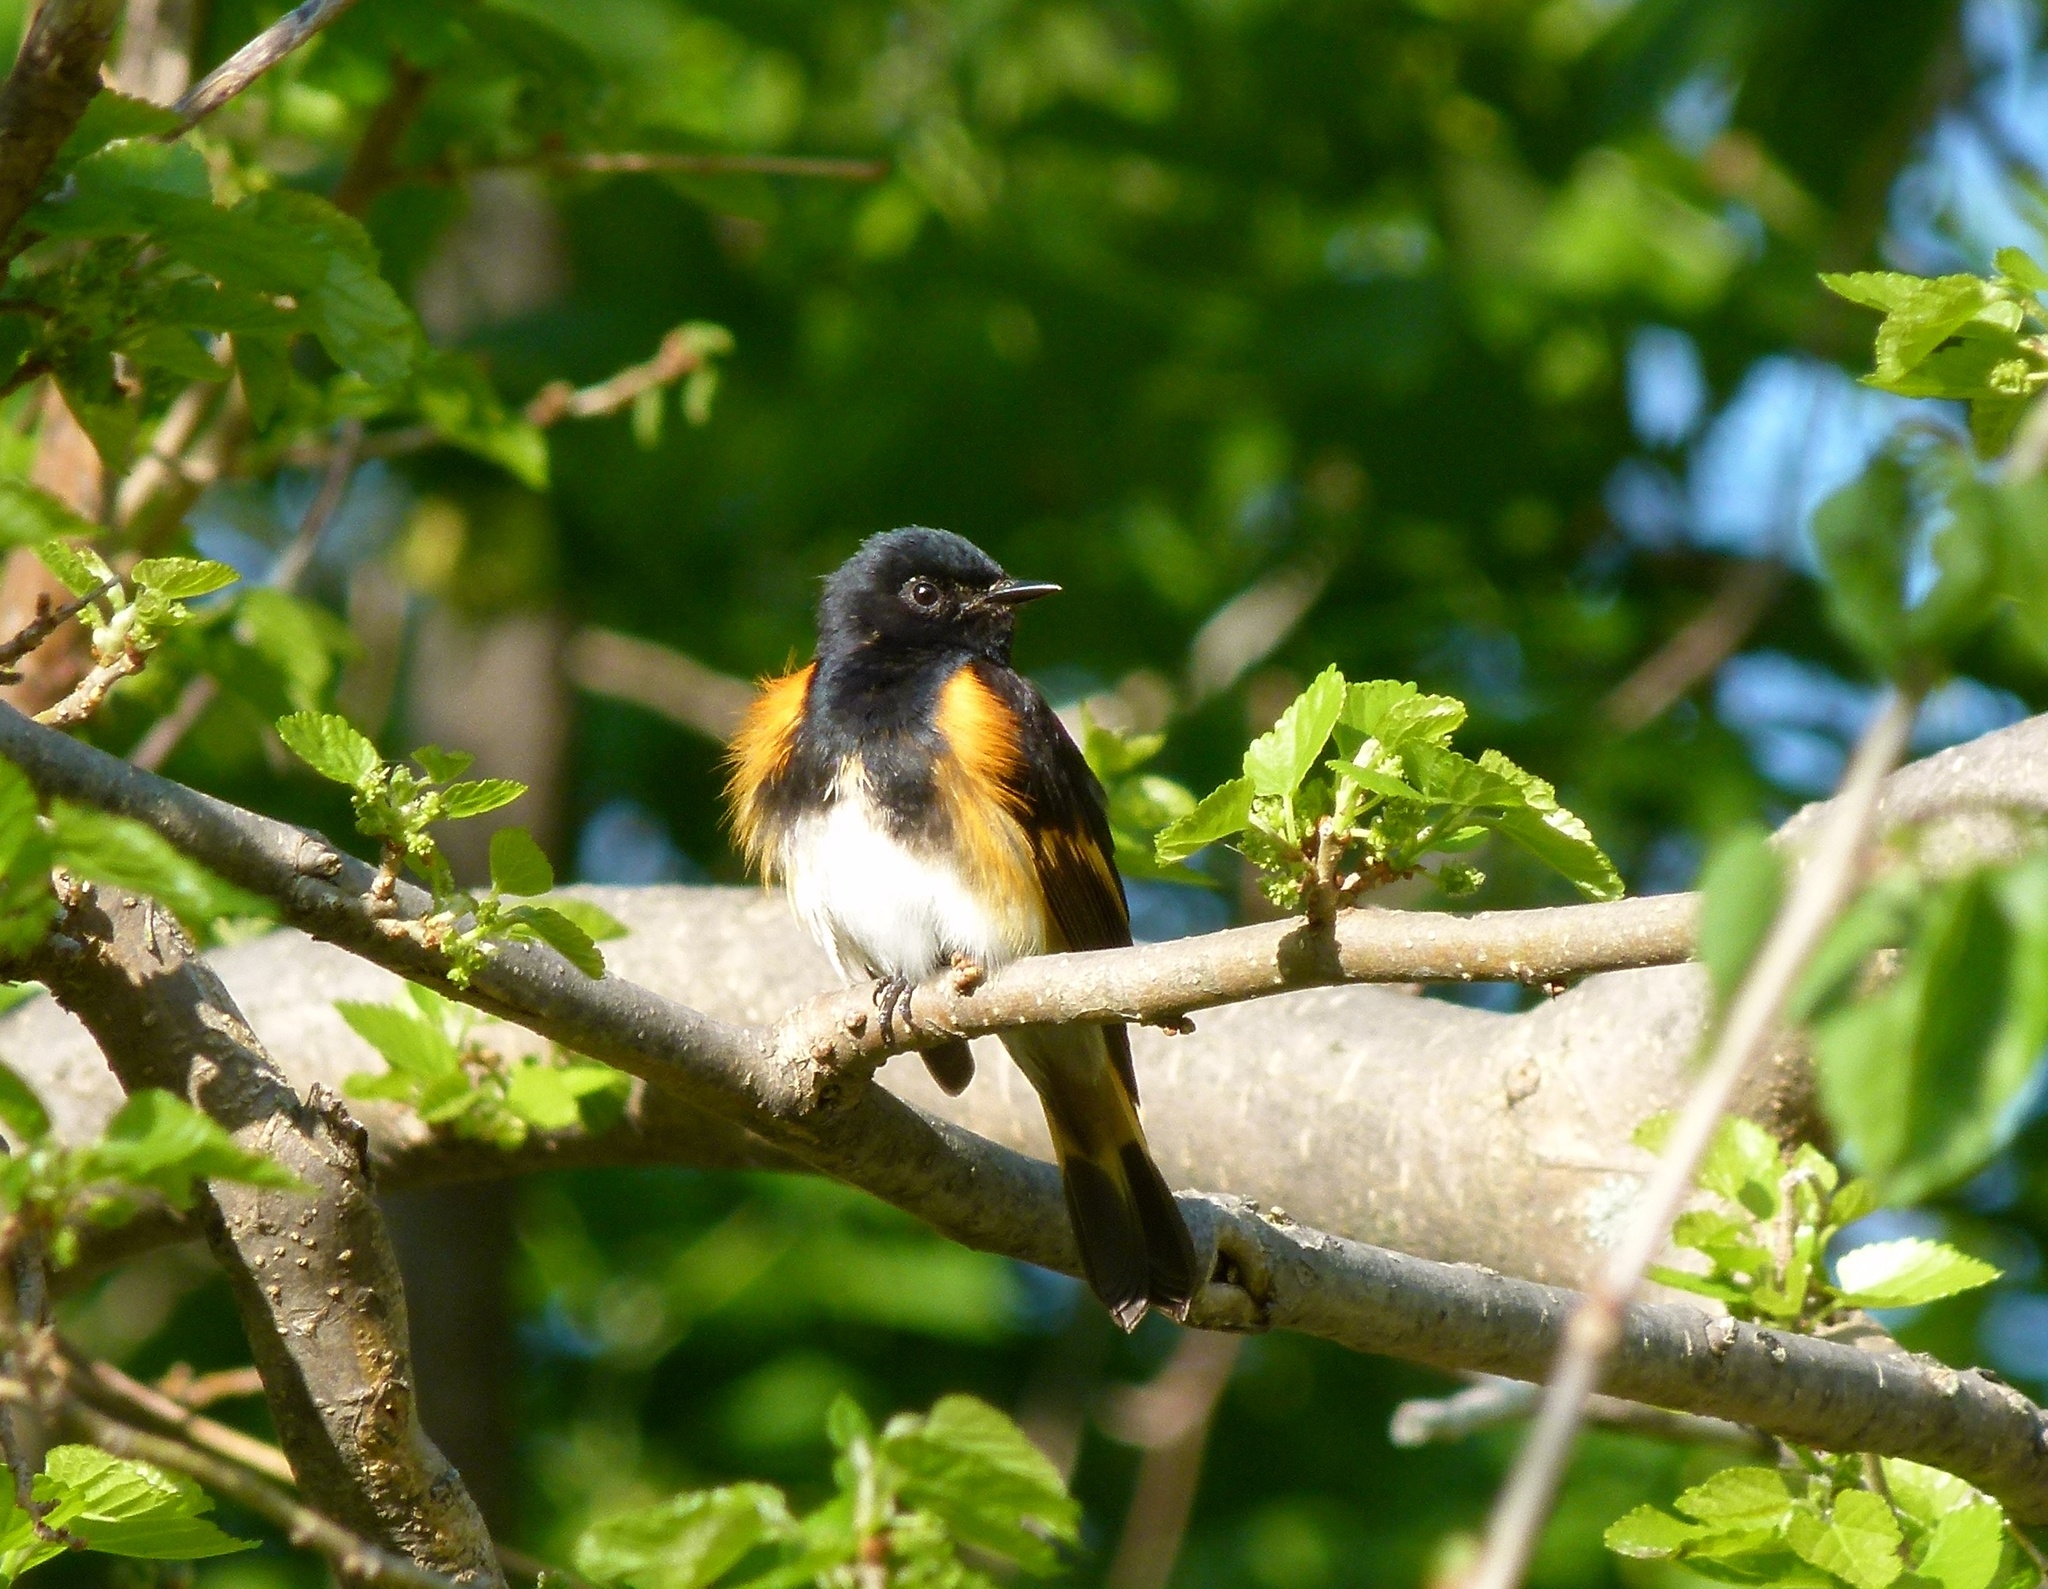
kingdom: Animalia
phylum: Chordata
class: Aves
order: Passeriformes
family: Parulidae
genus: Setophaga
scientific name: Setophaga ruticilla
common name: American redstart
